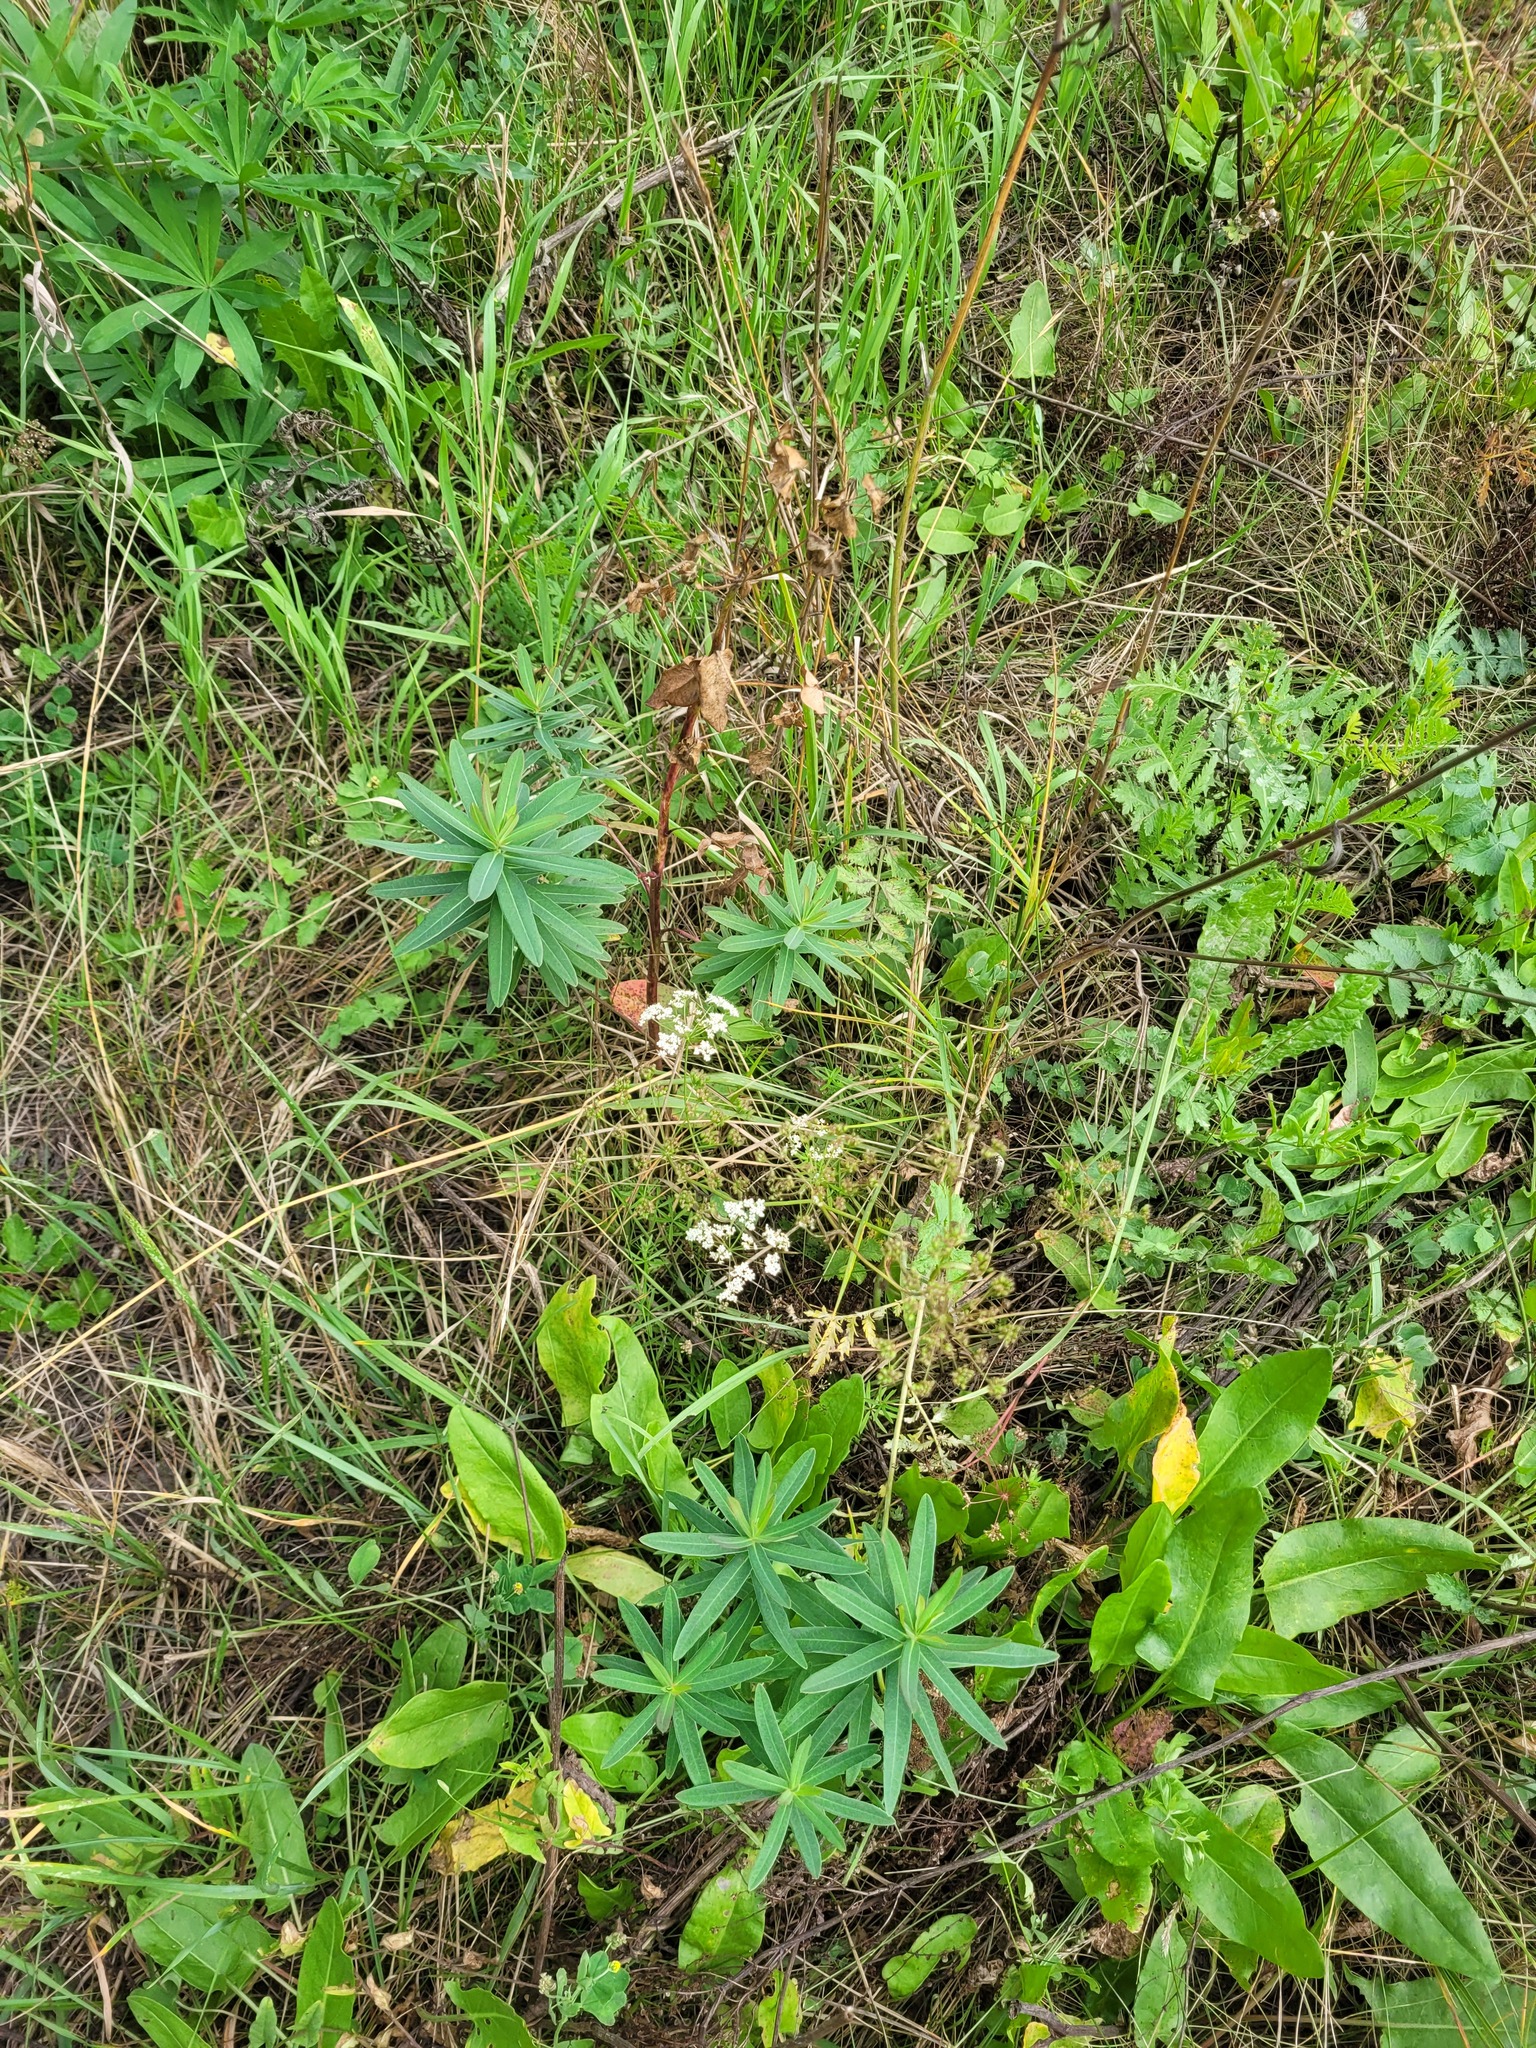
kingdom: Plantae
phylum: Tracheophyta
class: Magnoliopsida
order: Apiales
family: Apiaceae
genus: Pimpinella
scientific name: Pimpinella saxifraga
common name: Burnet-saxifrage
